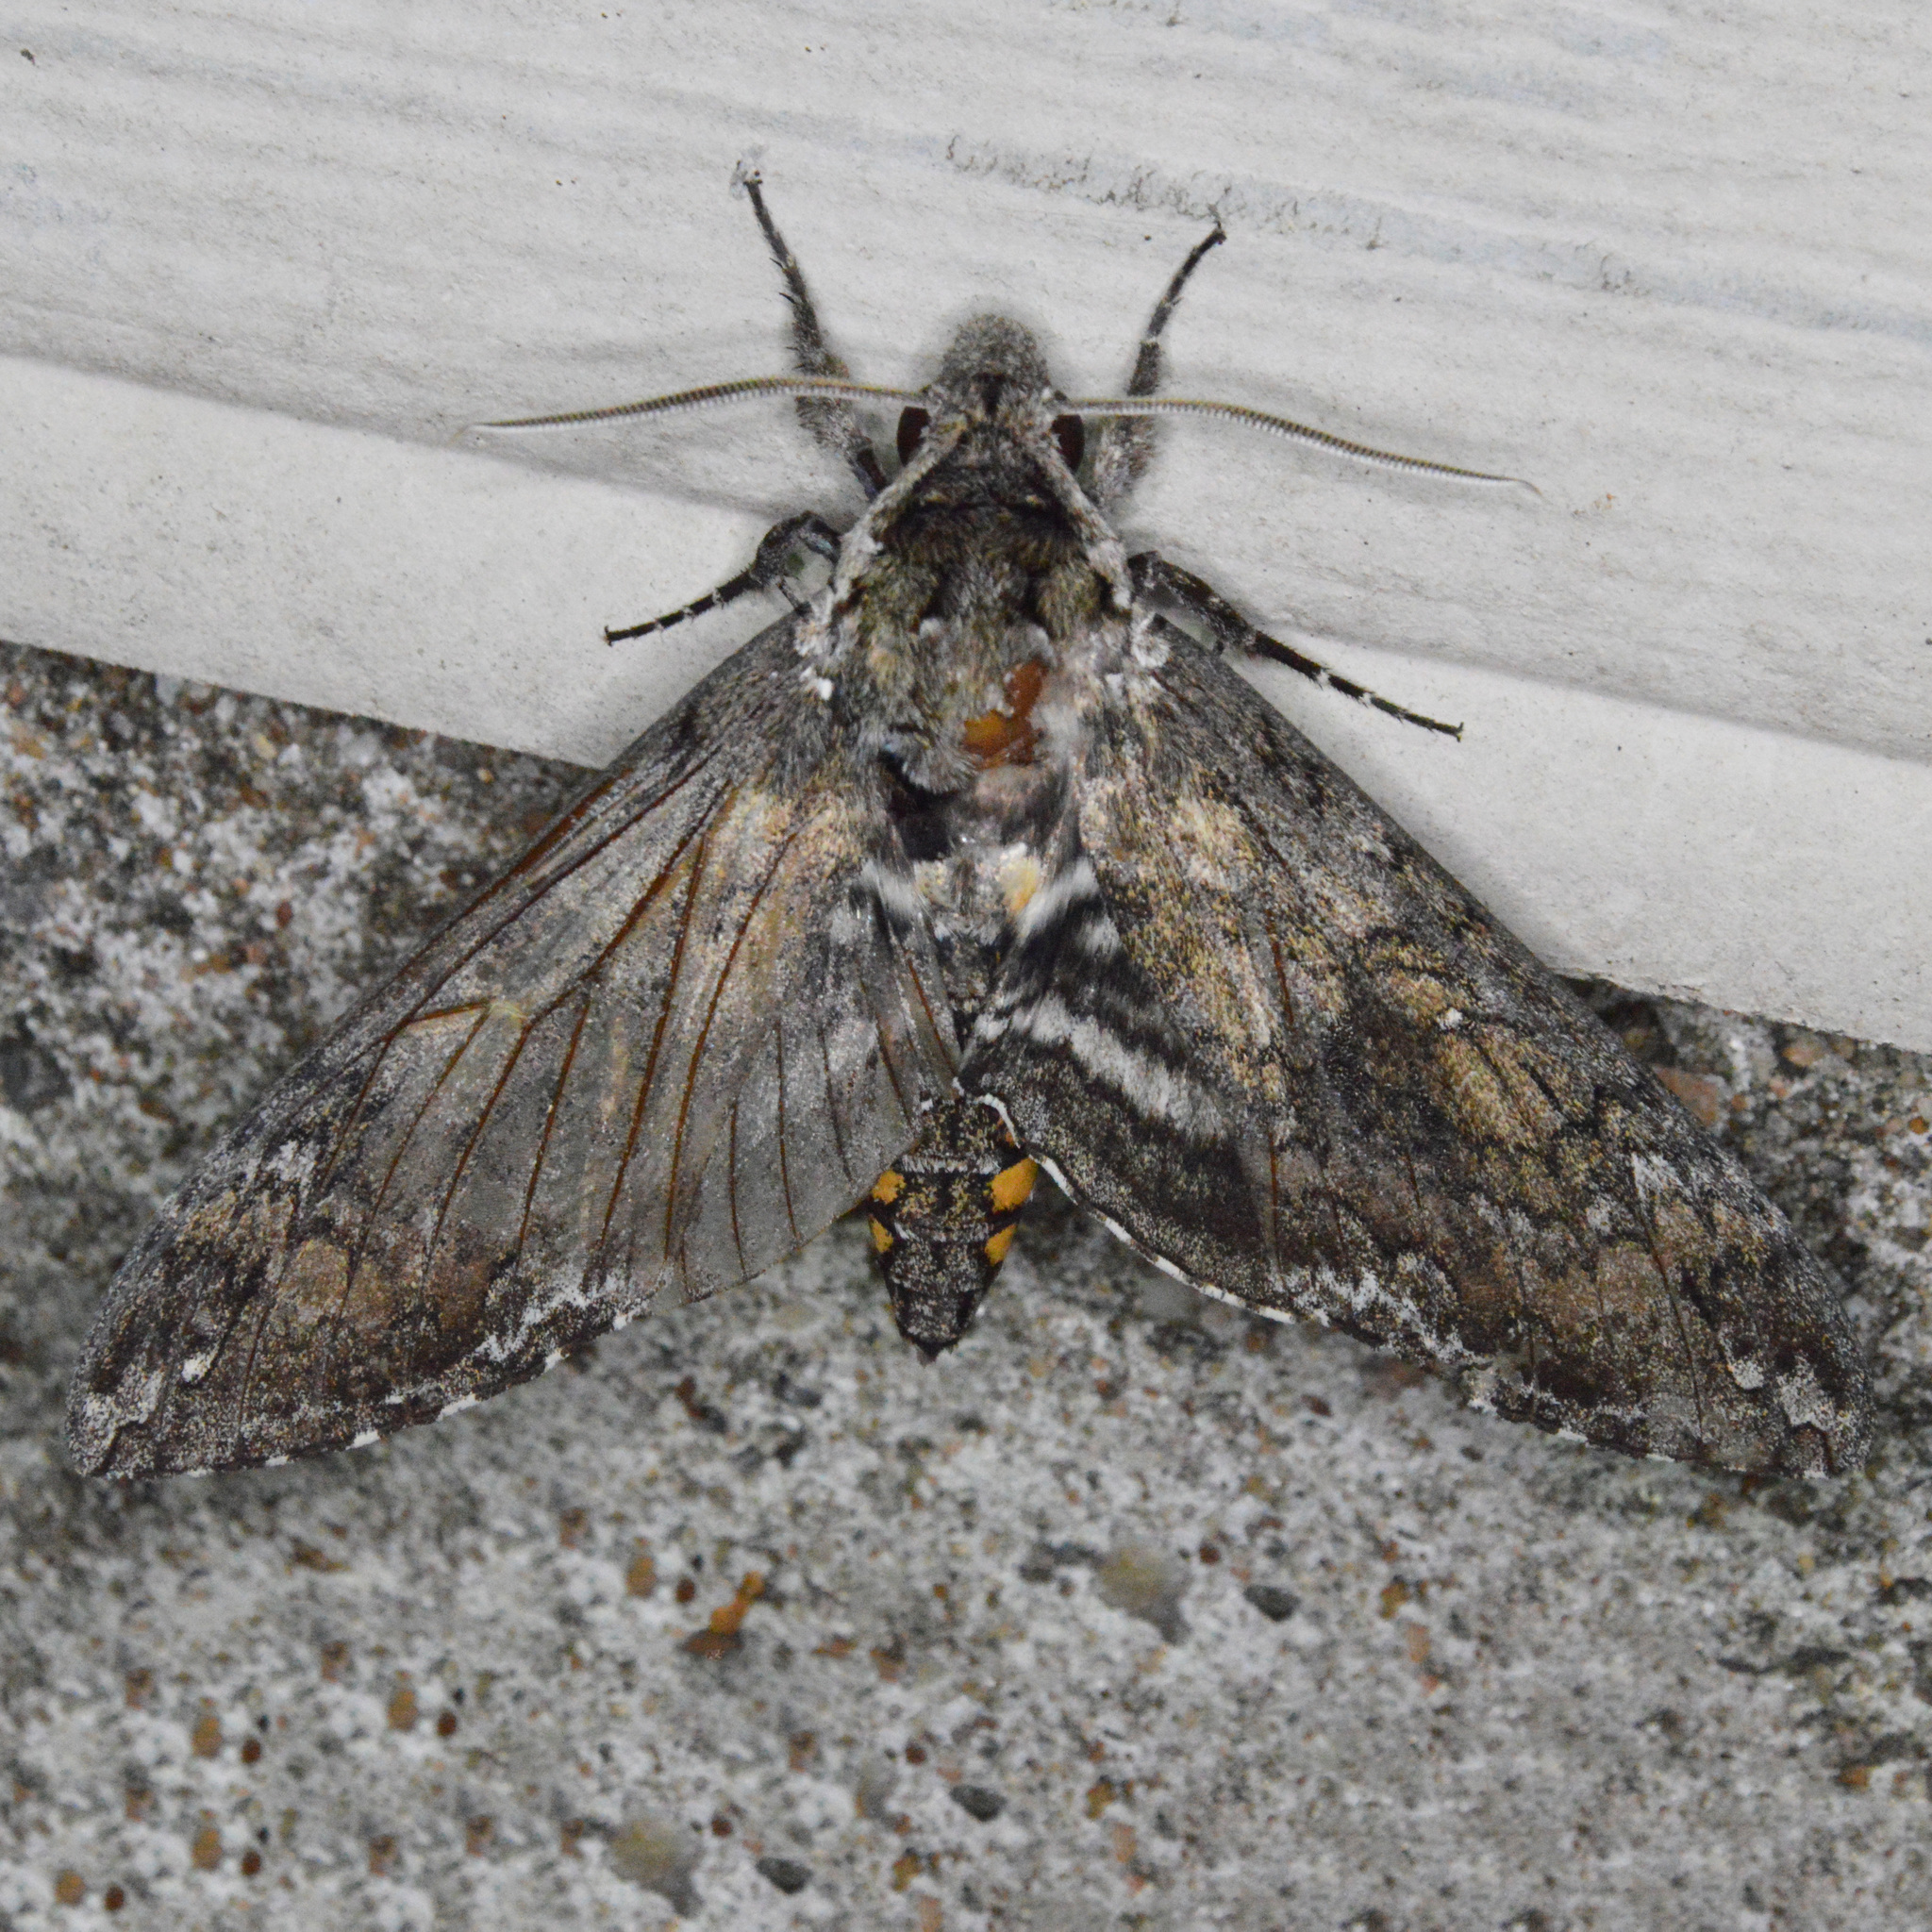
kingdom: Animalia
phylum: Arthropoda
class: Insecta
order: Lepidoptera
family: Sphingidae
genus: Manduca
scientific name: Manduca sexta
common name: Carolina sphinx
